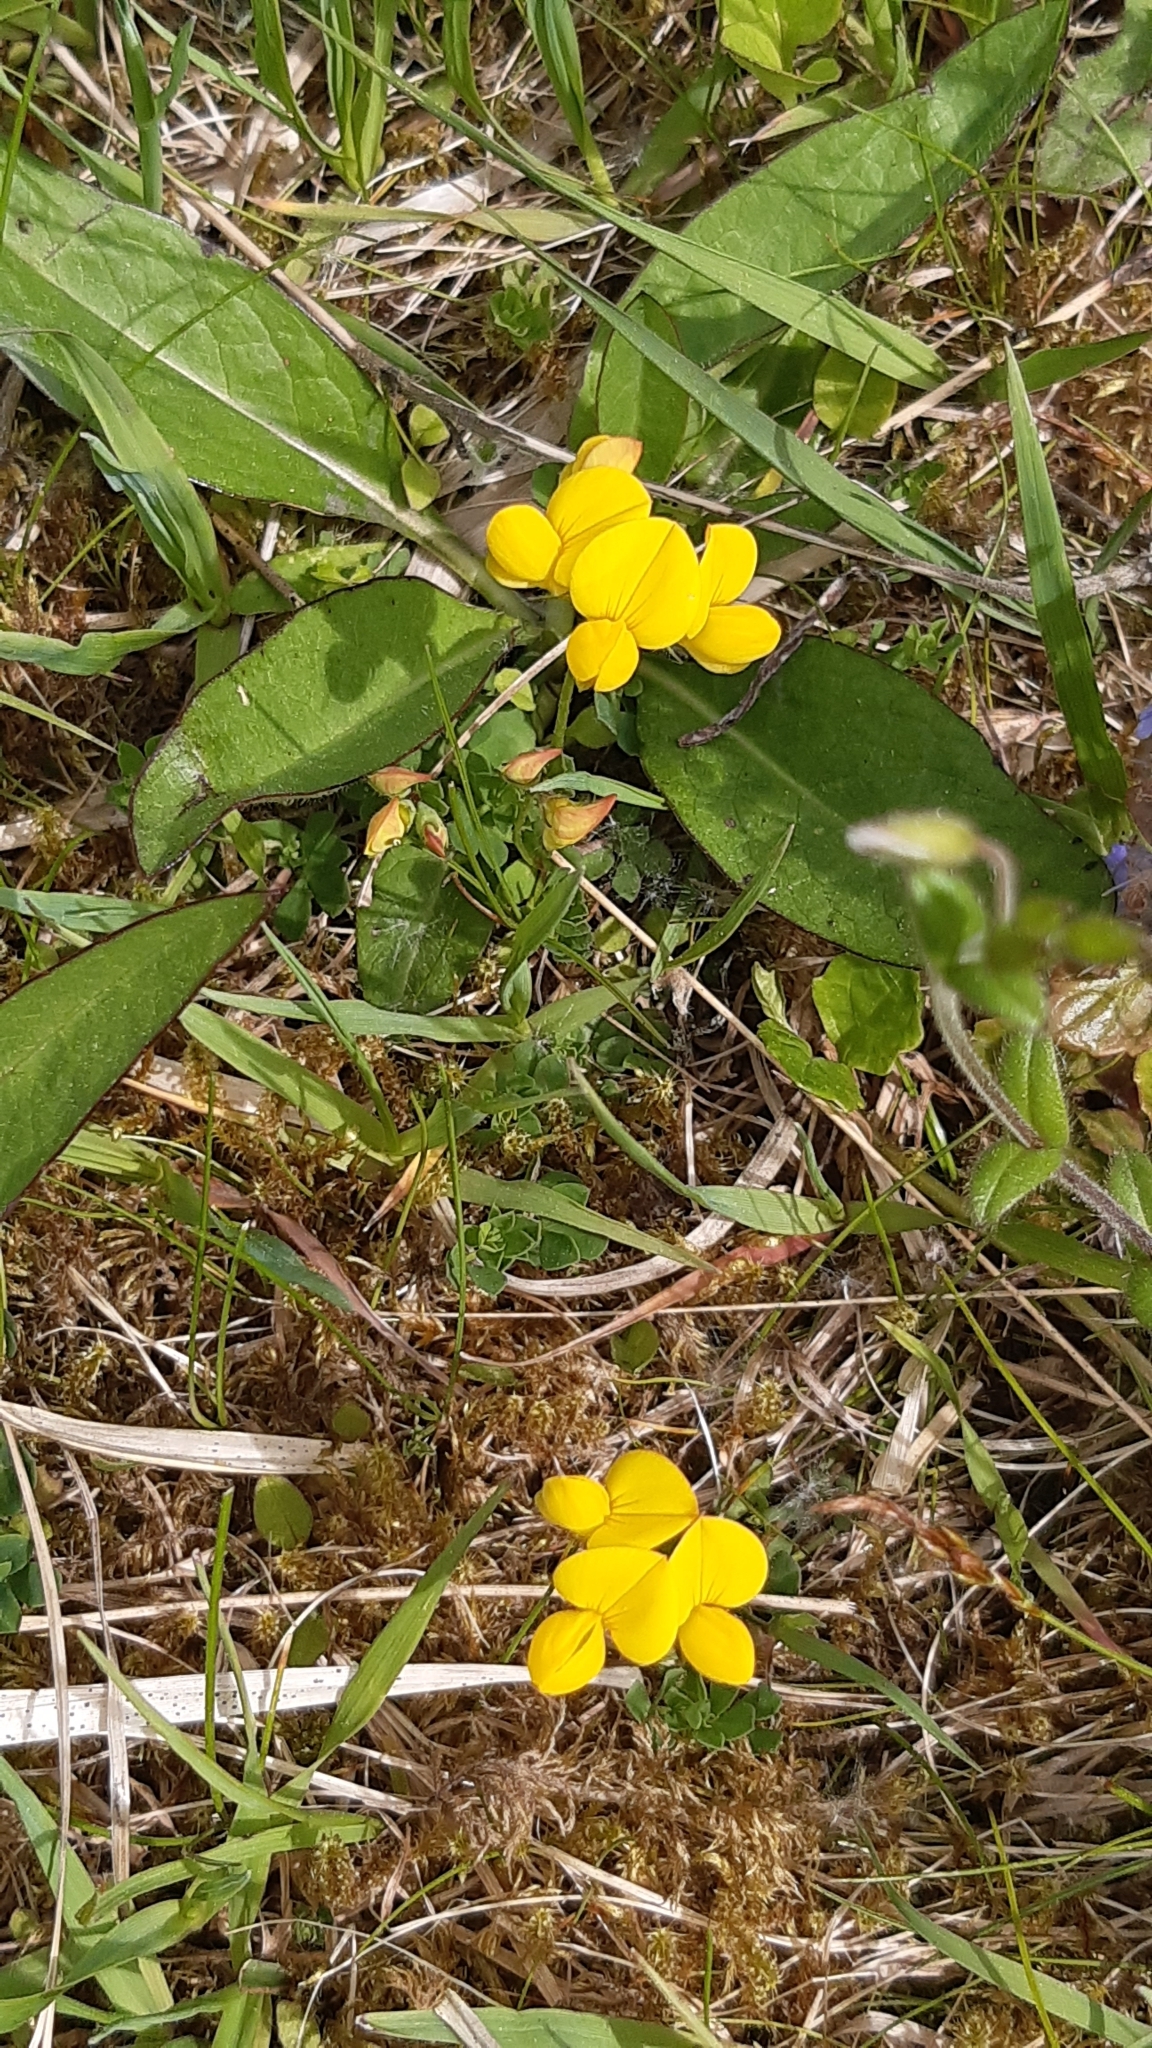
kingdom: Plantae
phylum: Tracheophyta
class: Magnoliopsida
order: Fabales
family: Fabaceae
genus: Lotus
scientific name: Lotus corniculatus
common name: Common bird's-foot-trefoil
